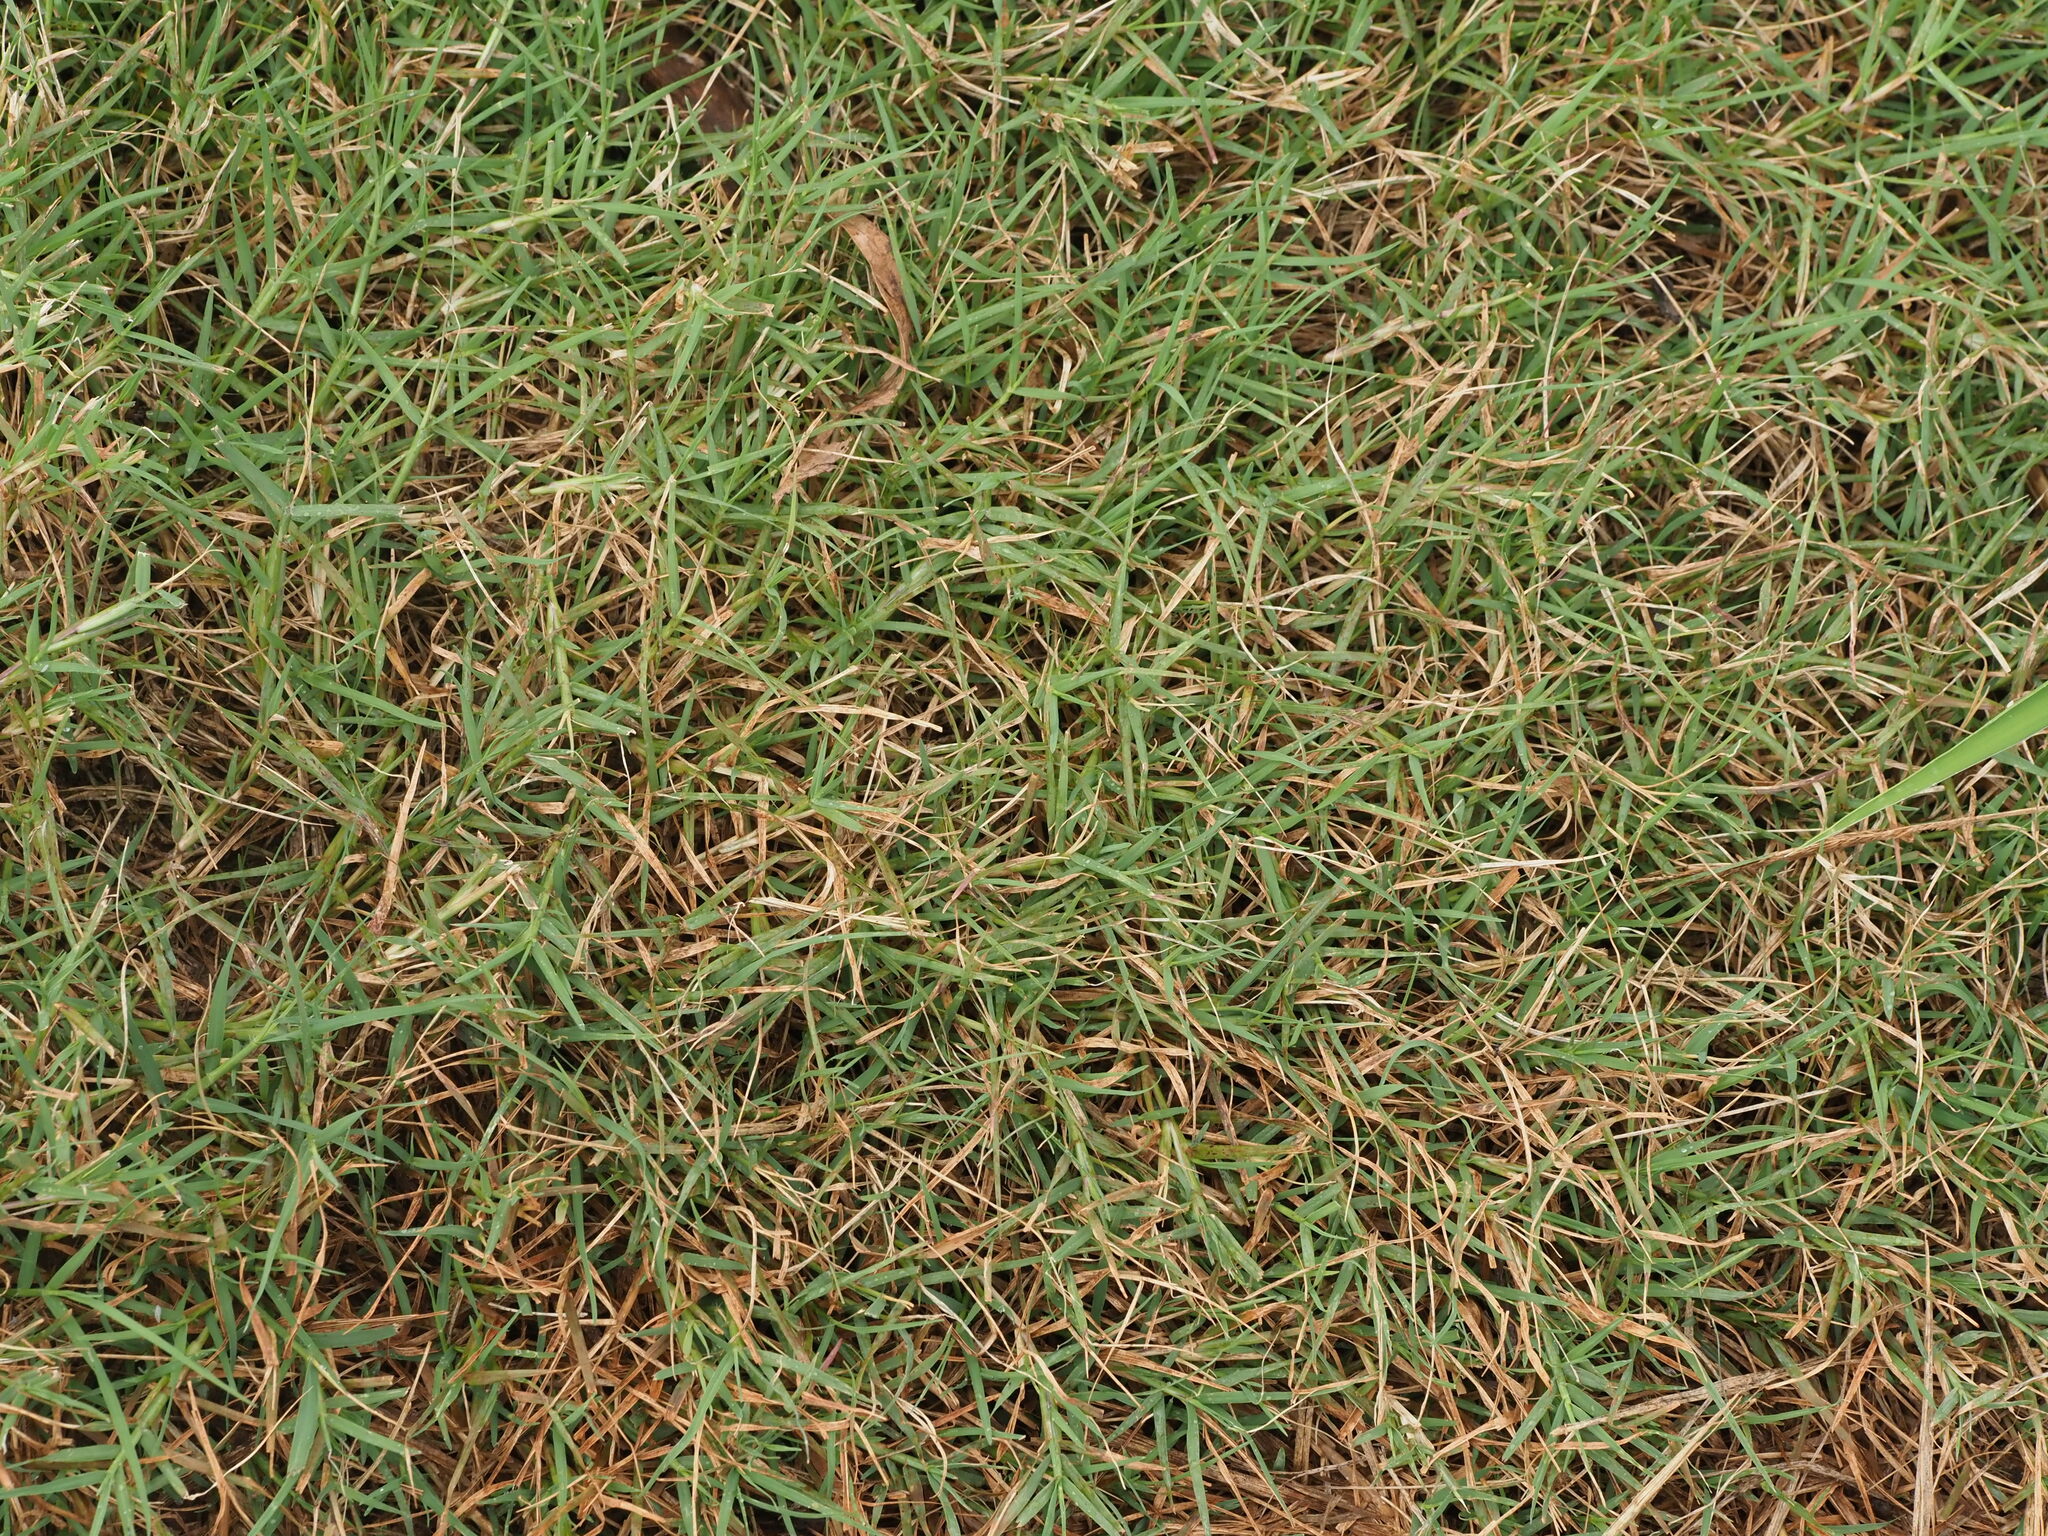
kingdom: Plantae
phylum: Tracheophyta
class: Liliopsida
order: Poales
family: Poaceae
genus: Cynodon
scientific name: Cynodon dactylon
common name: Bermuda grass
